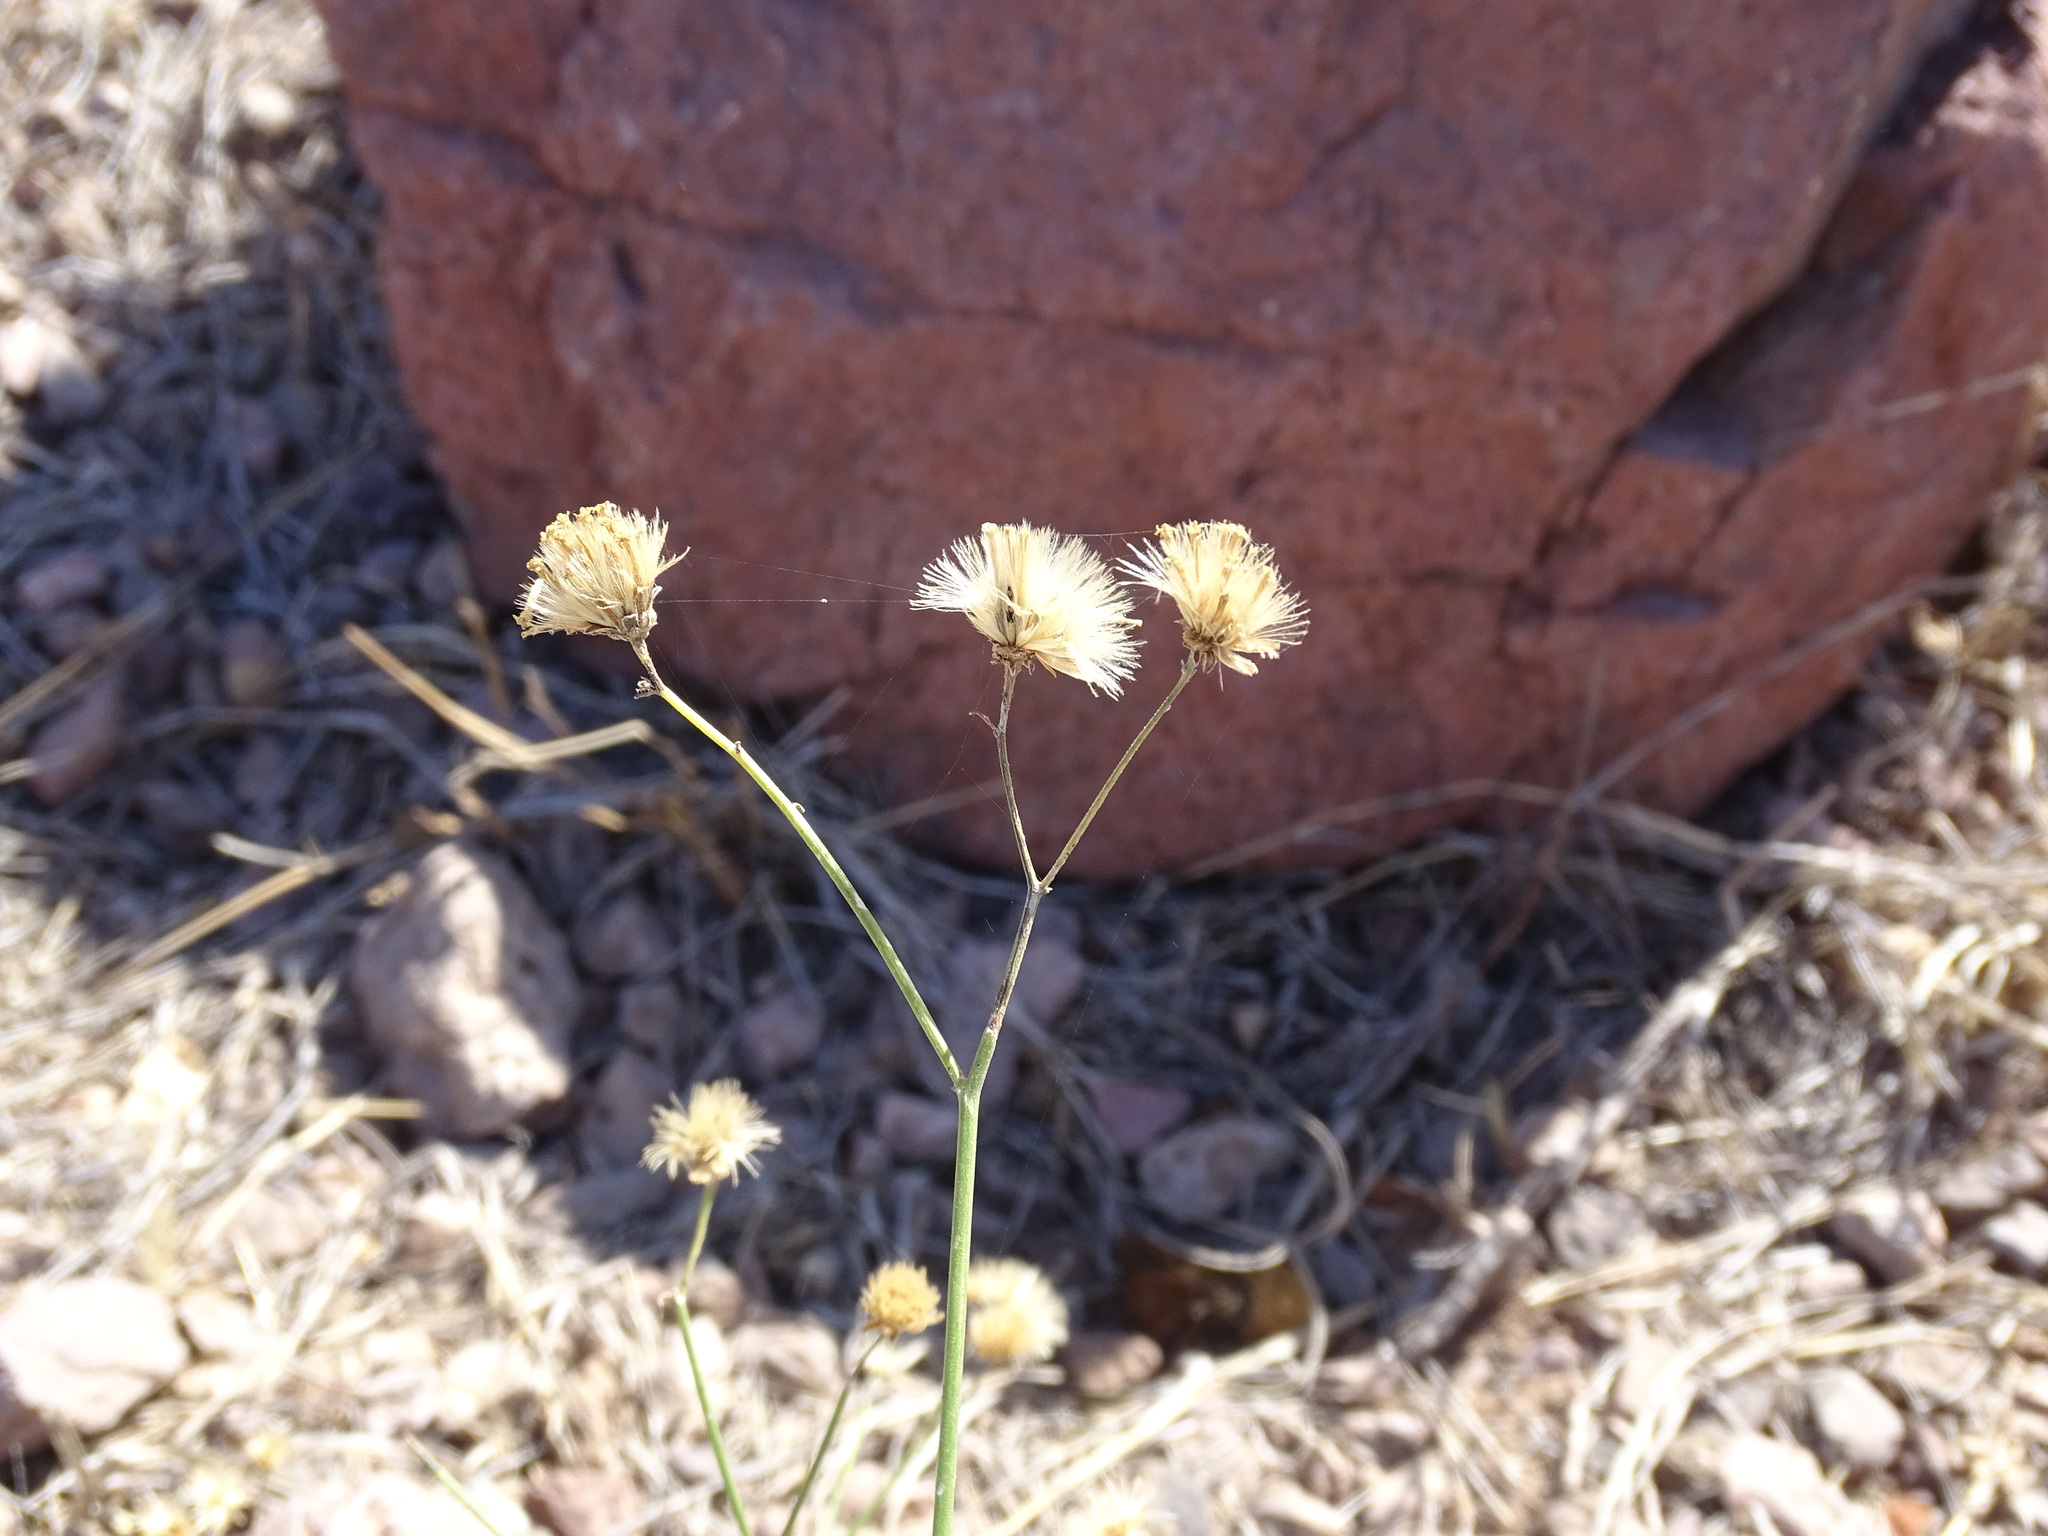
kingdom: Plantae
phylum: Tracheophyta
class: Magnoliopsida
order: Asterales
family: Asteraceae
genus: Bebbia
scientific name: Bebbia juncea
